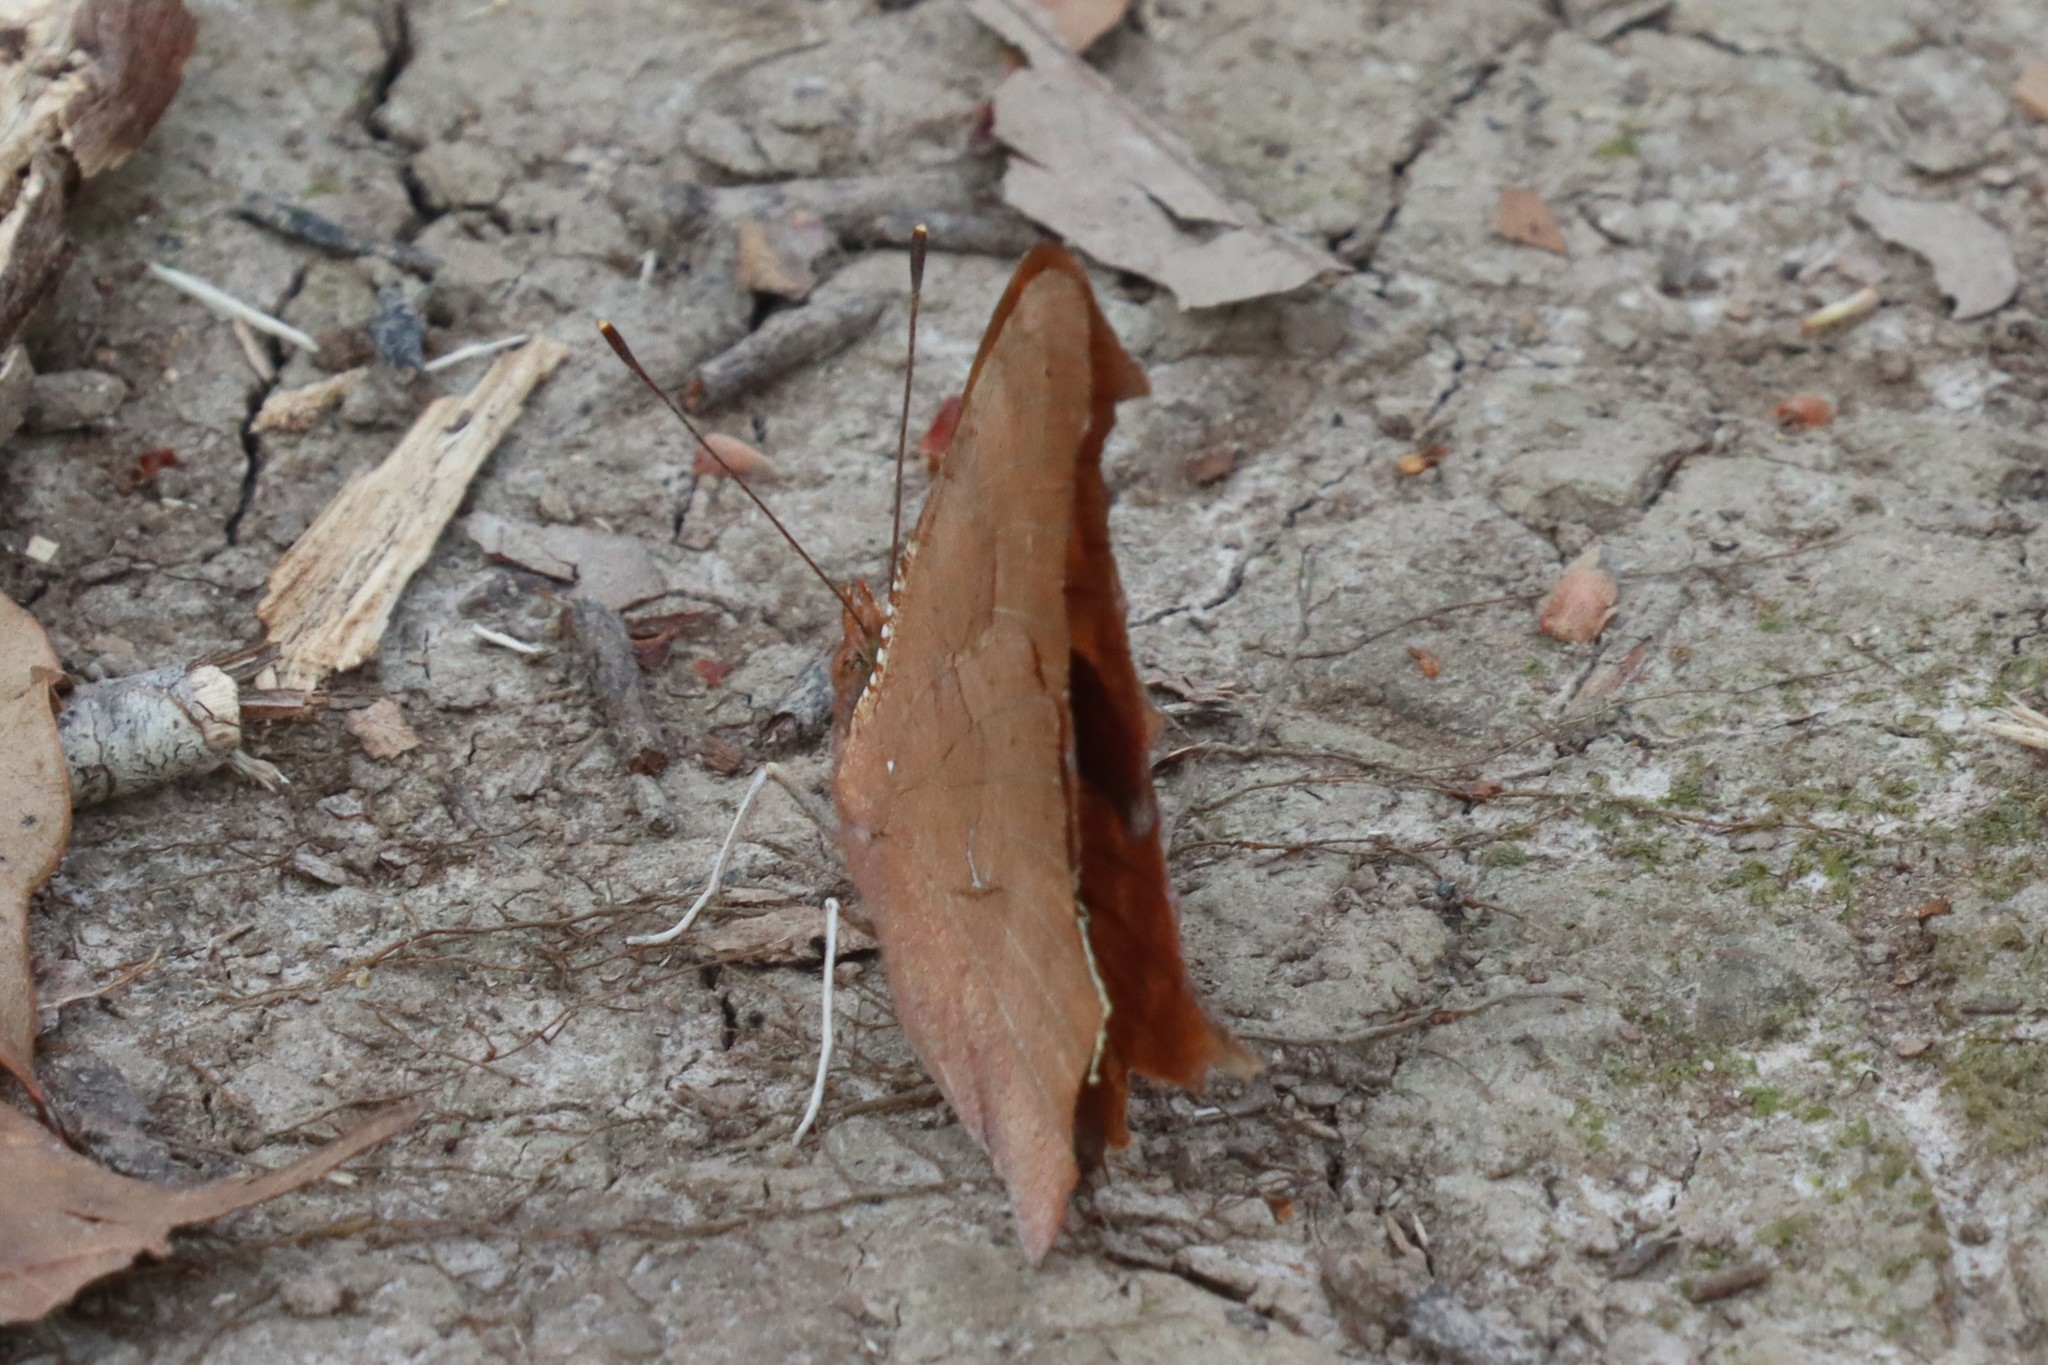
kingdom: Animalia
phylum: Arthropoda
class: Insecta
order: Lepidoptera
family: Nymphalidae
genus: Polygonia
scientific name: Polygonia interrogationis
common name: Question mark
